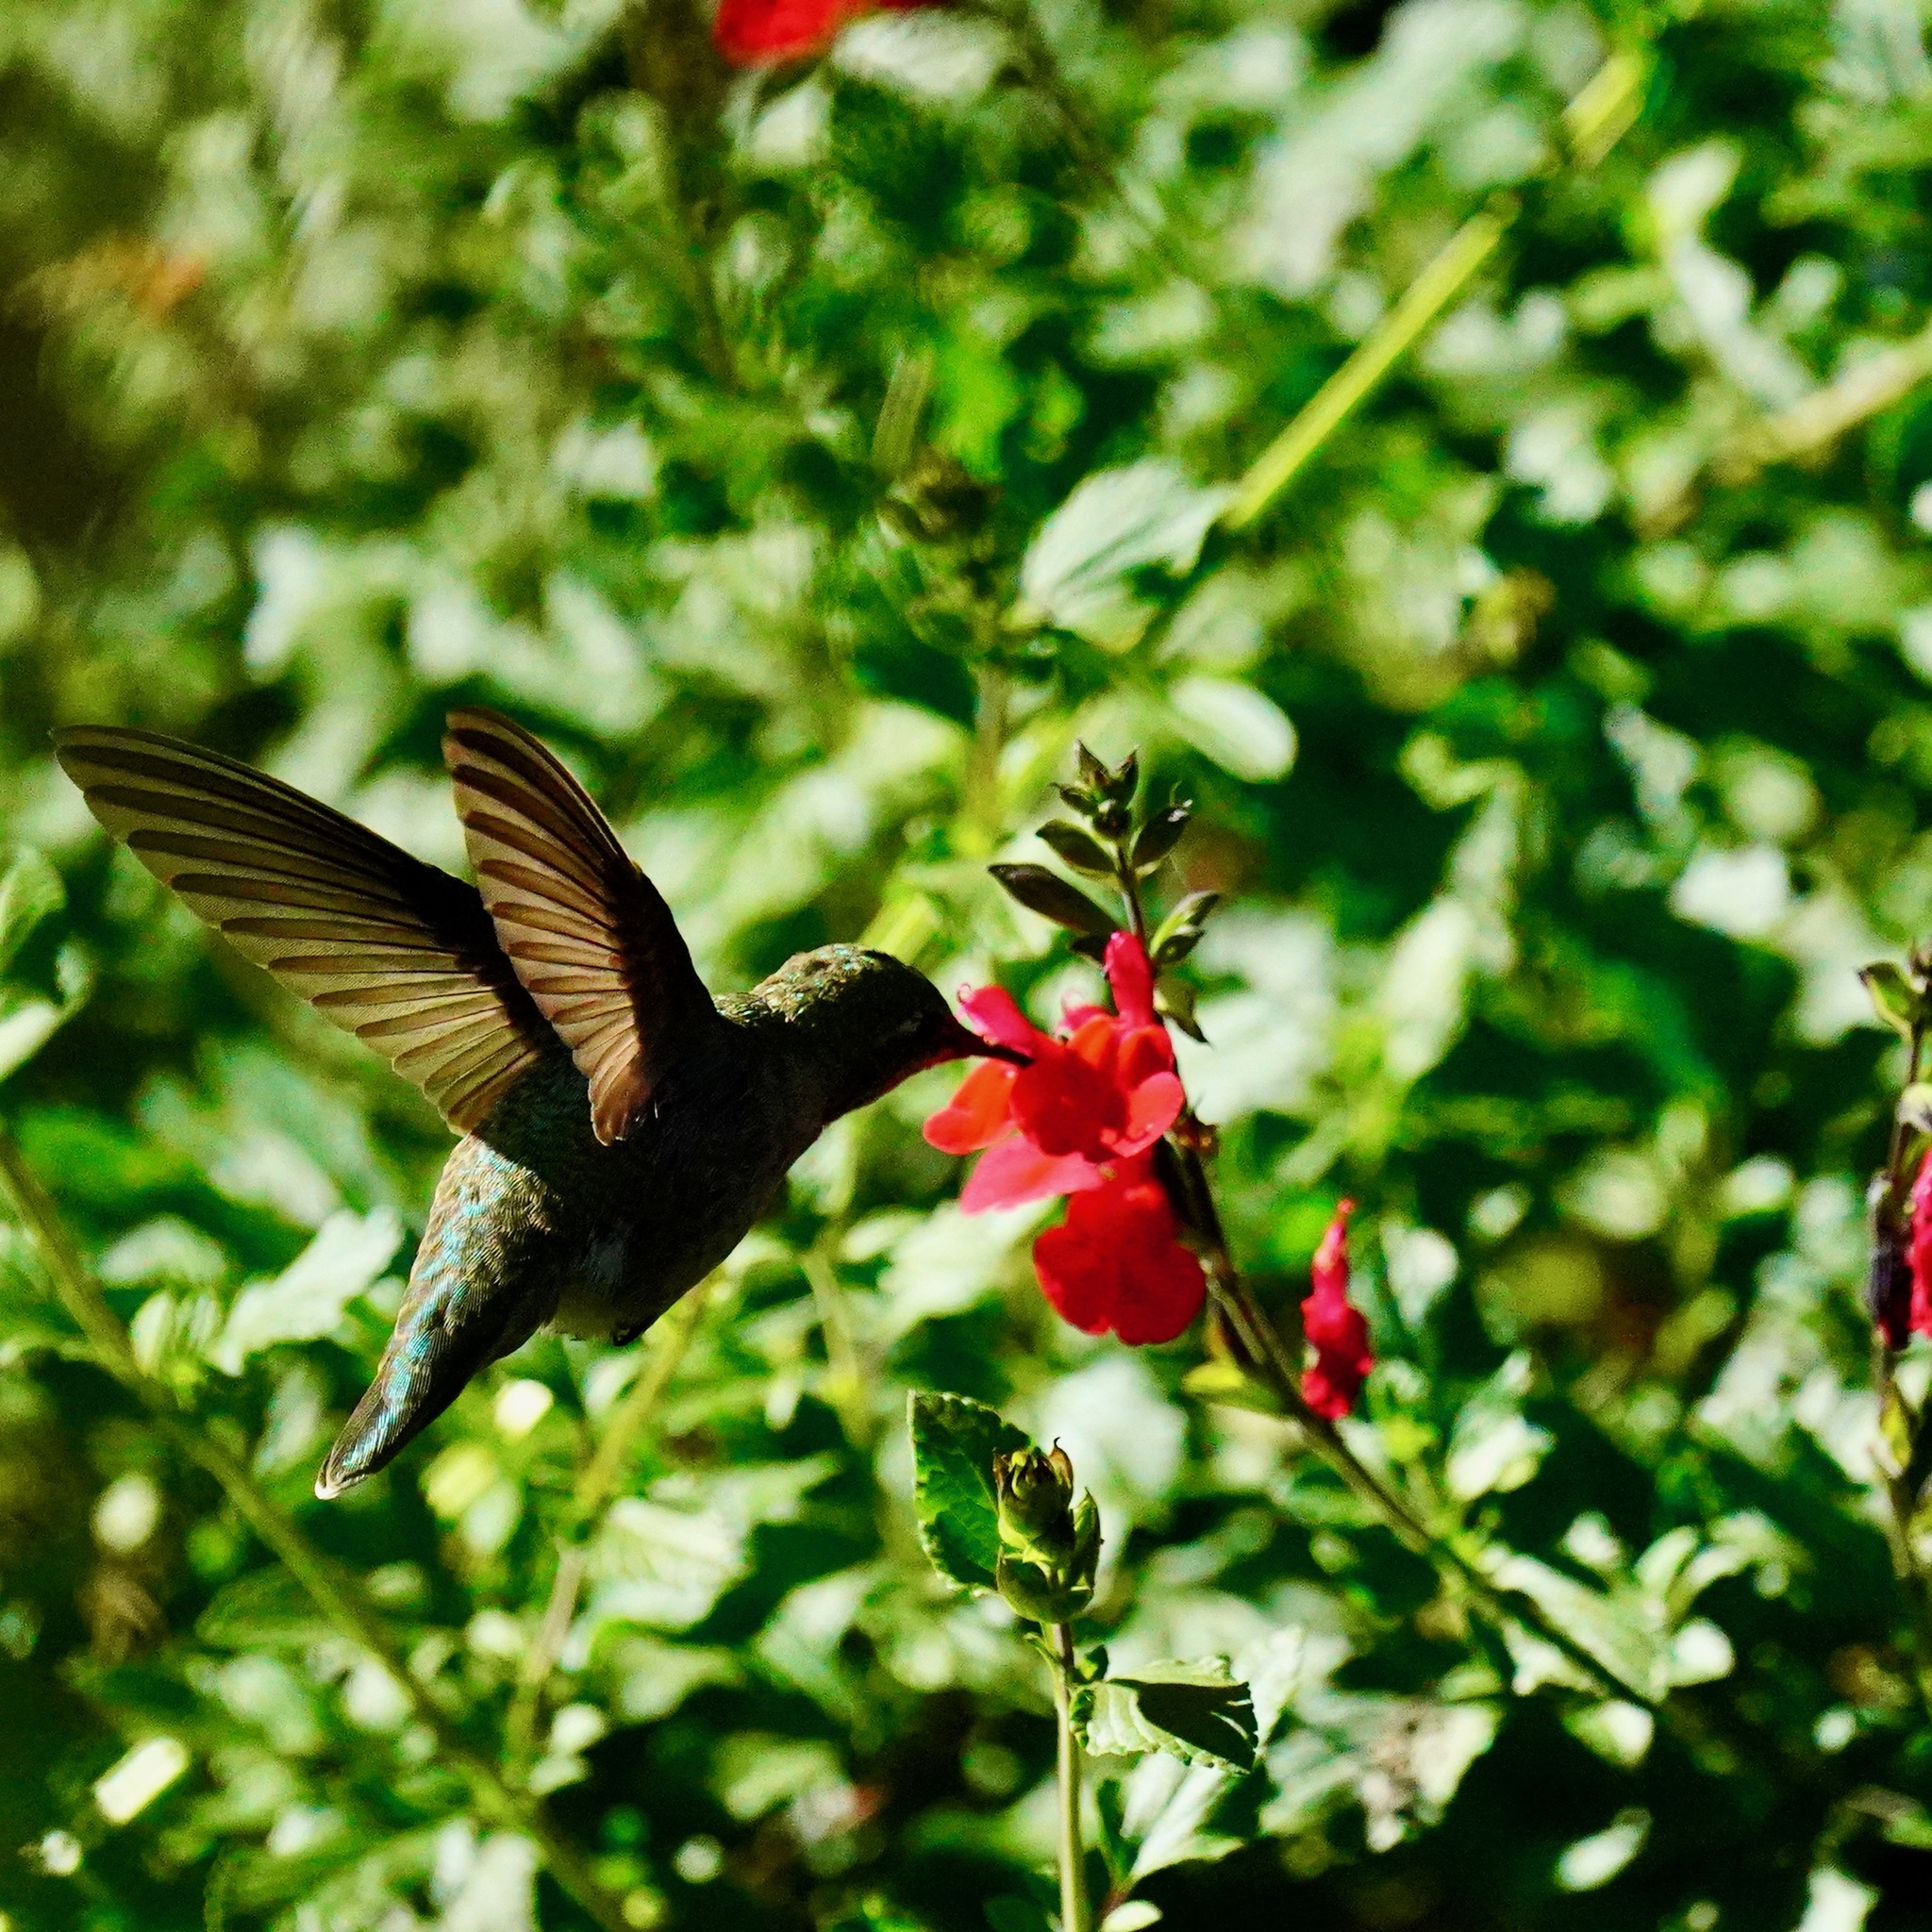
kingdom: Animalia
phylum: Chordata
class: Aves
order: Apodiformes
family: Trochilidae
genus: Calypte
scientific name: Calypte anna
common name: Anna's hummingbird
